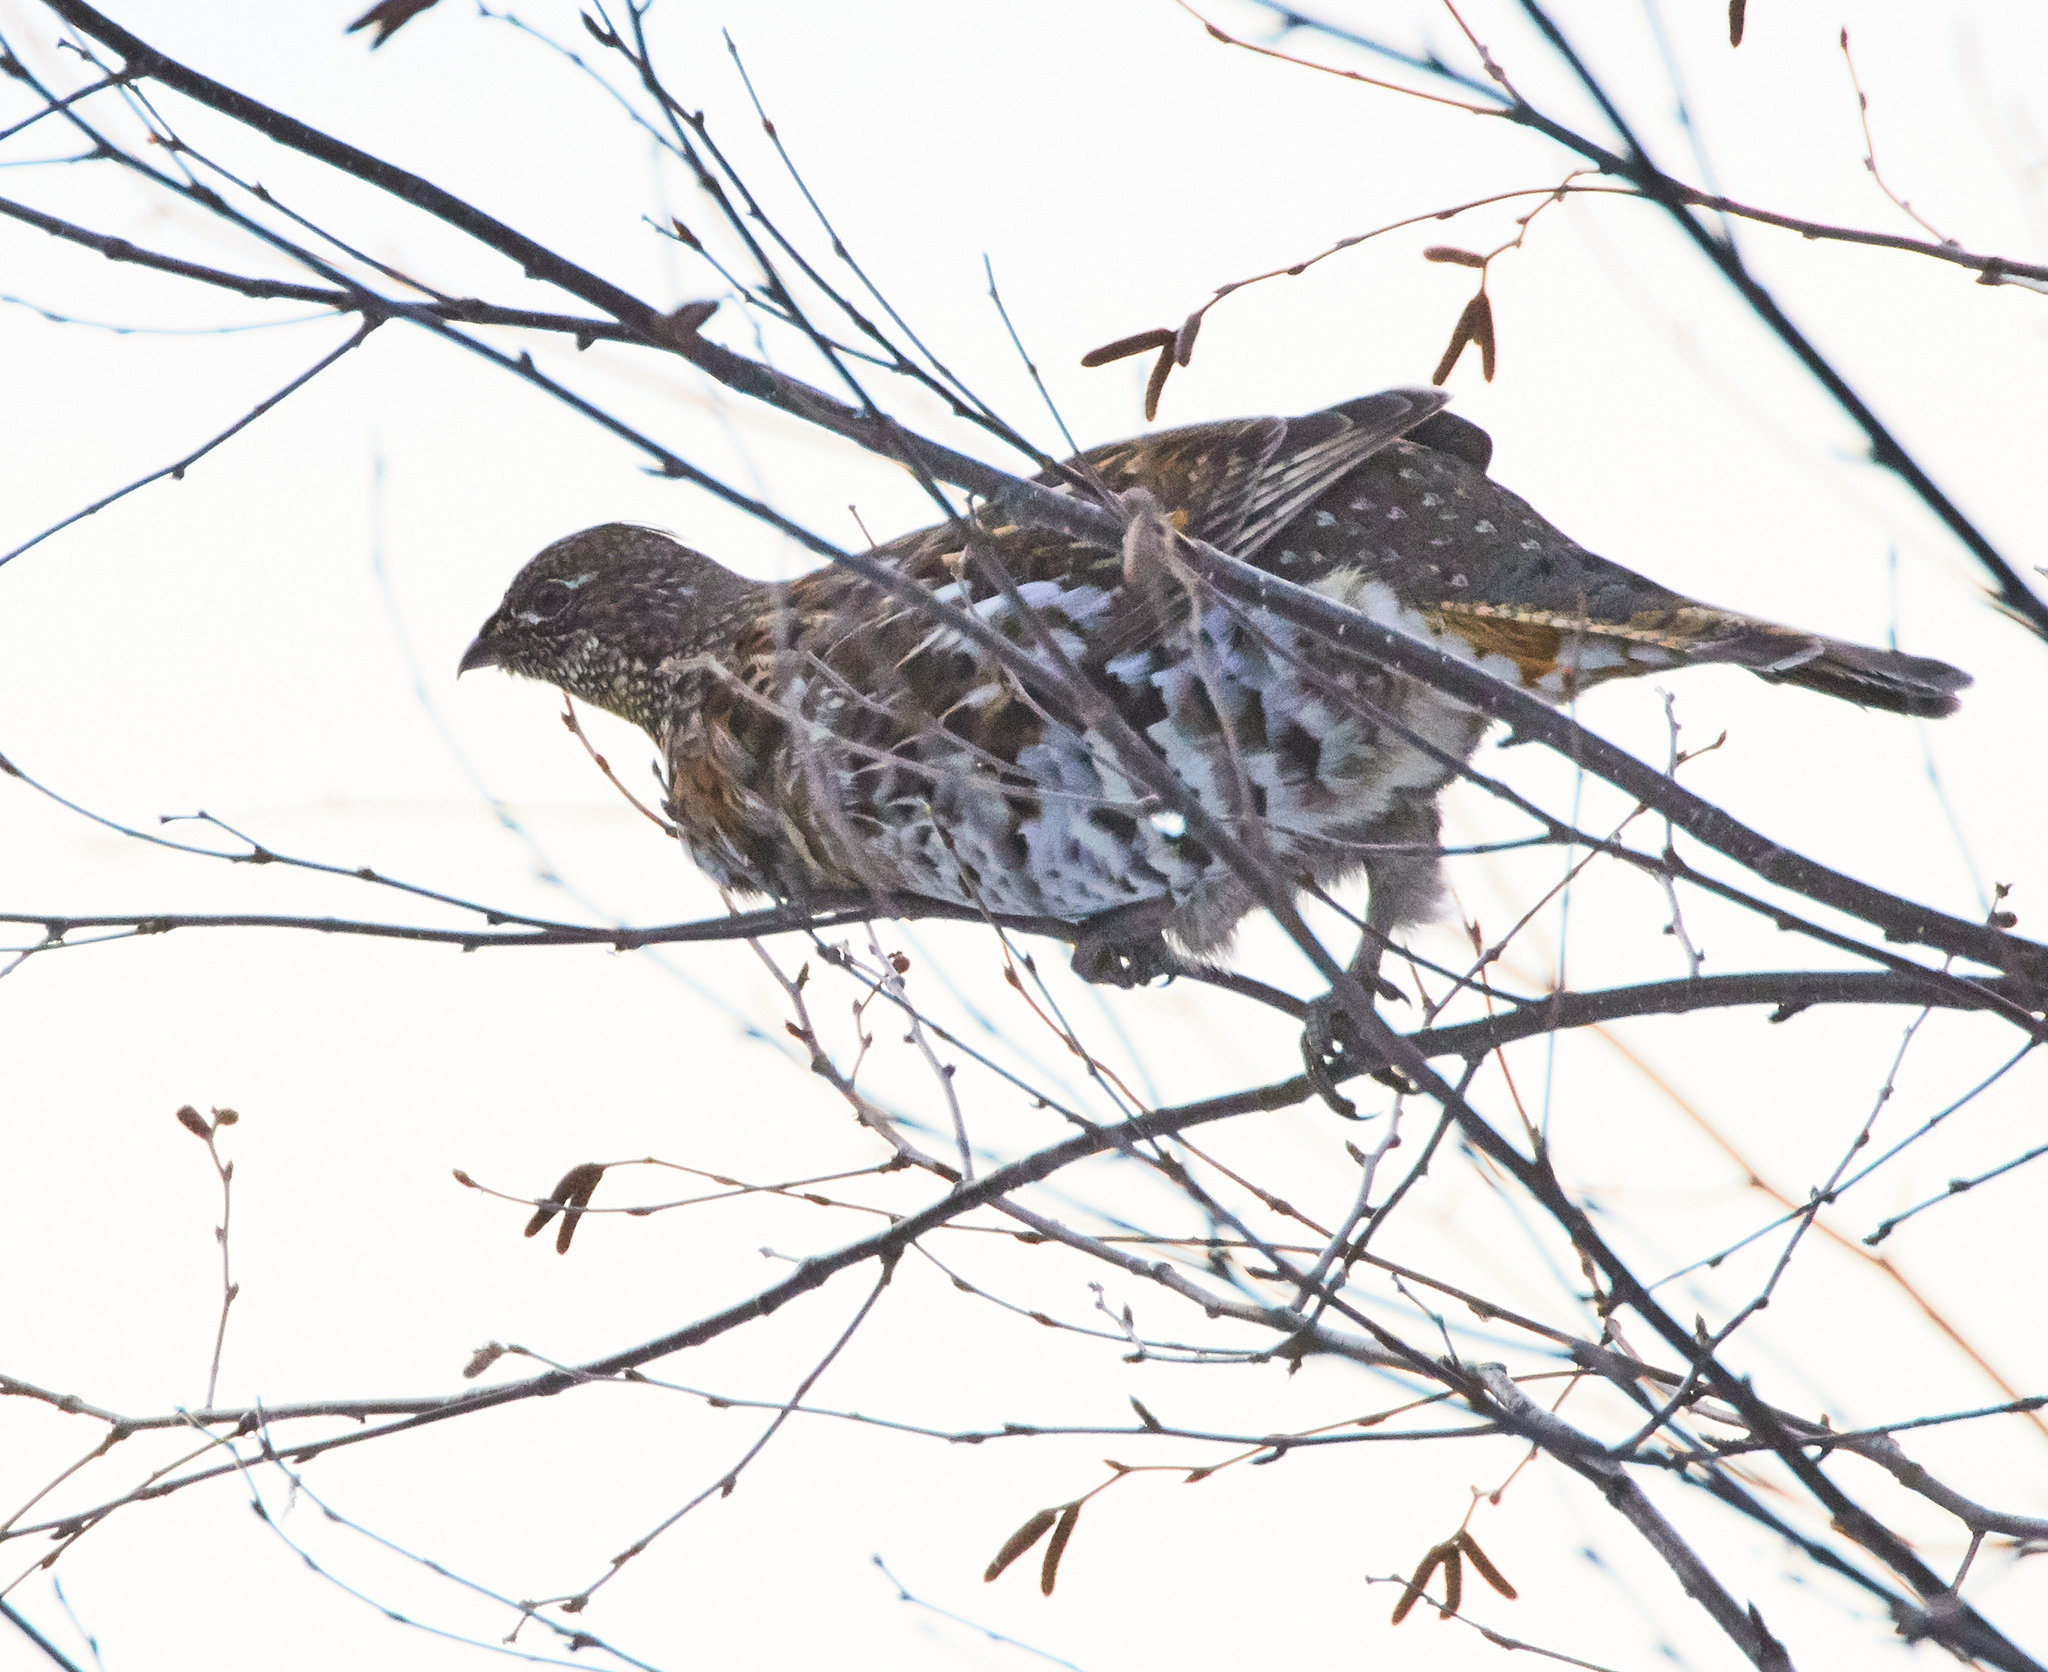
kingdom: Animalia
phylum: Chordata
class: Aves
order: Galliformes
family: Phasianidae
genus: Bonasa
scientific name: Bonasa umbellus
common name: Ruffed grouse
